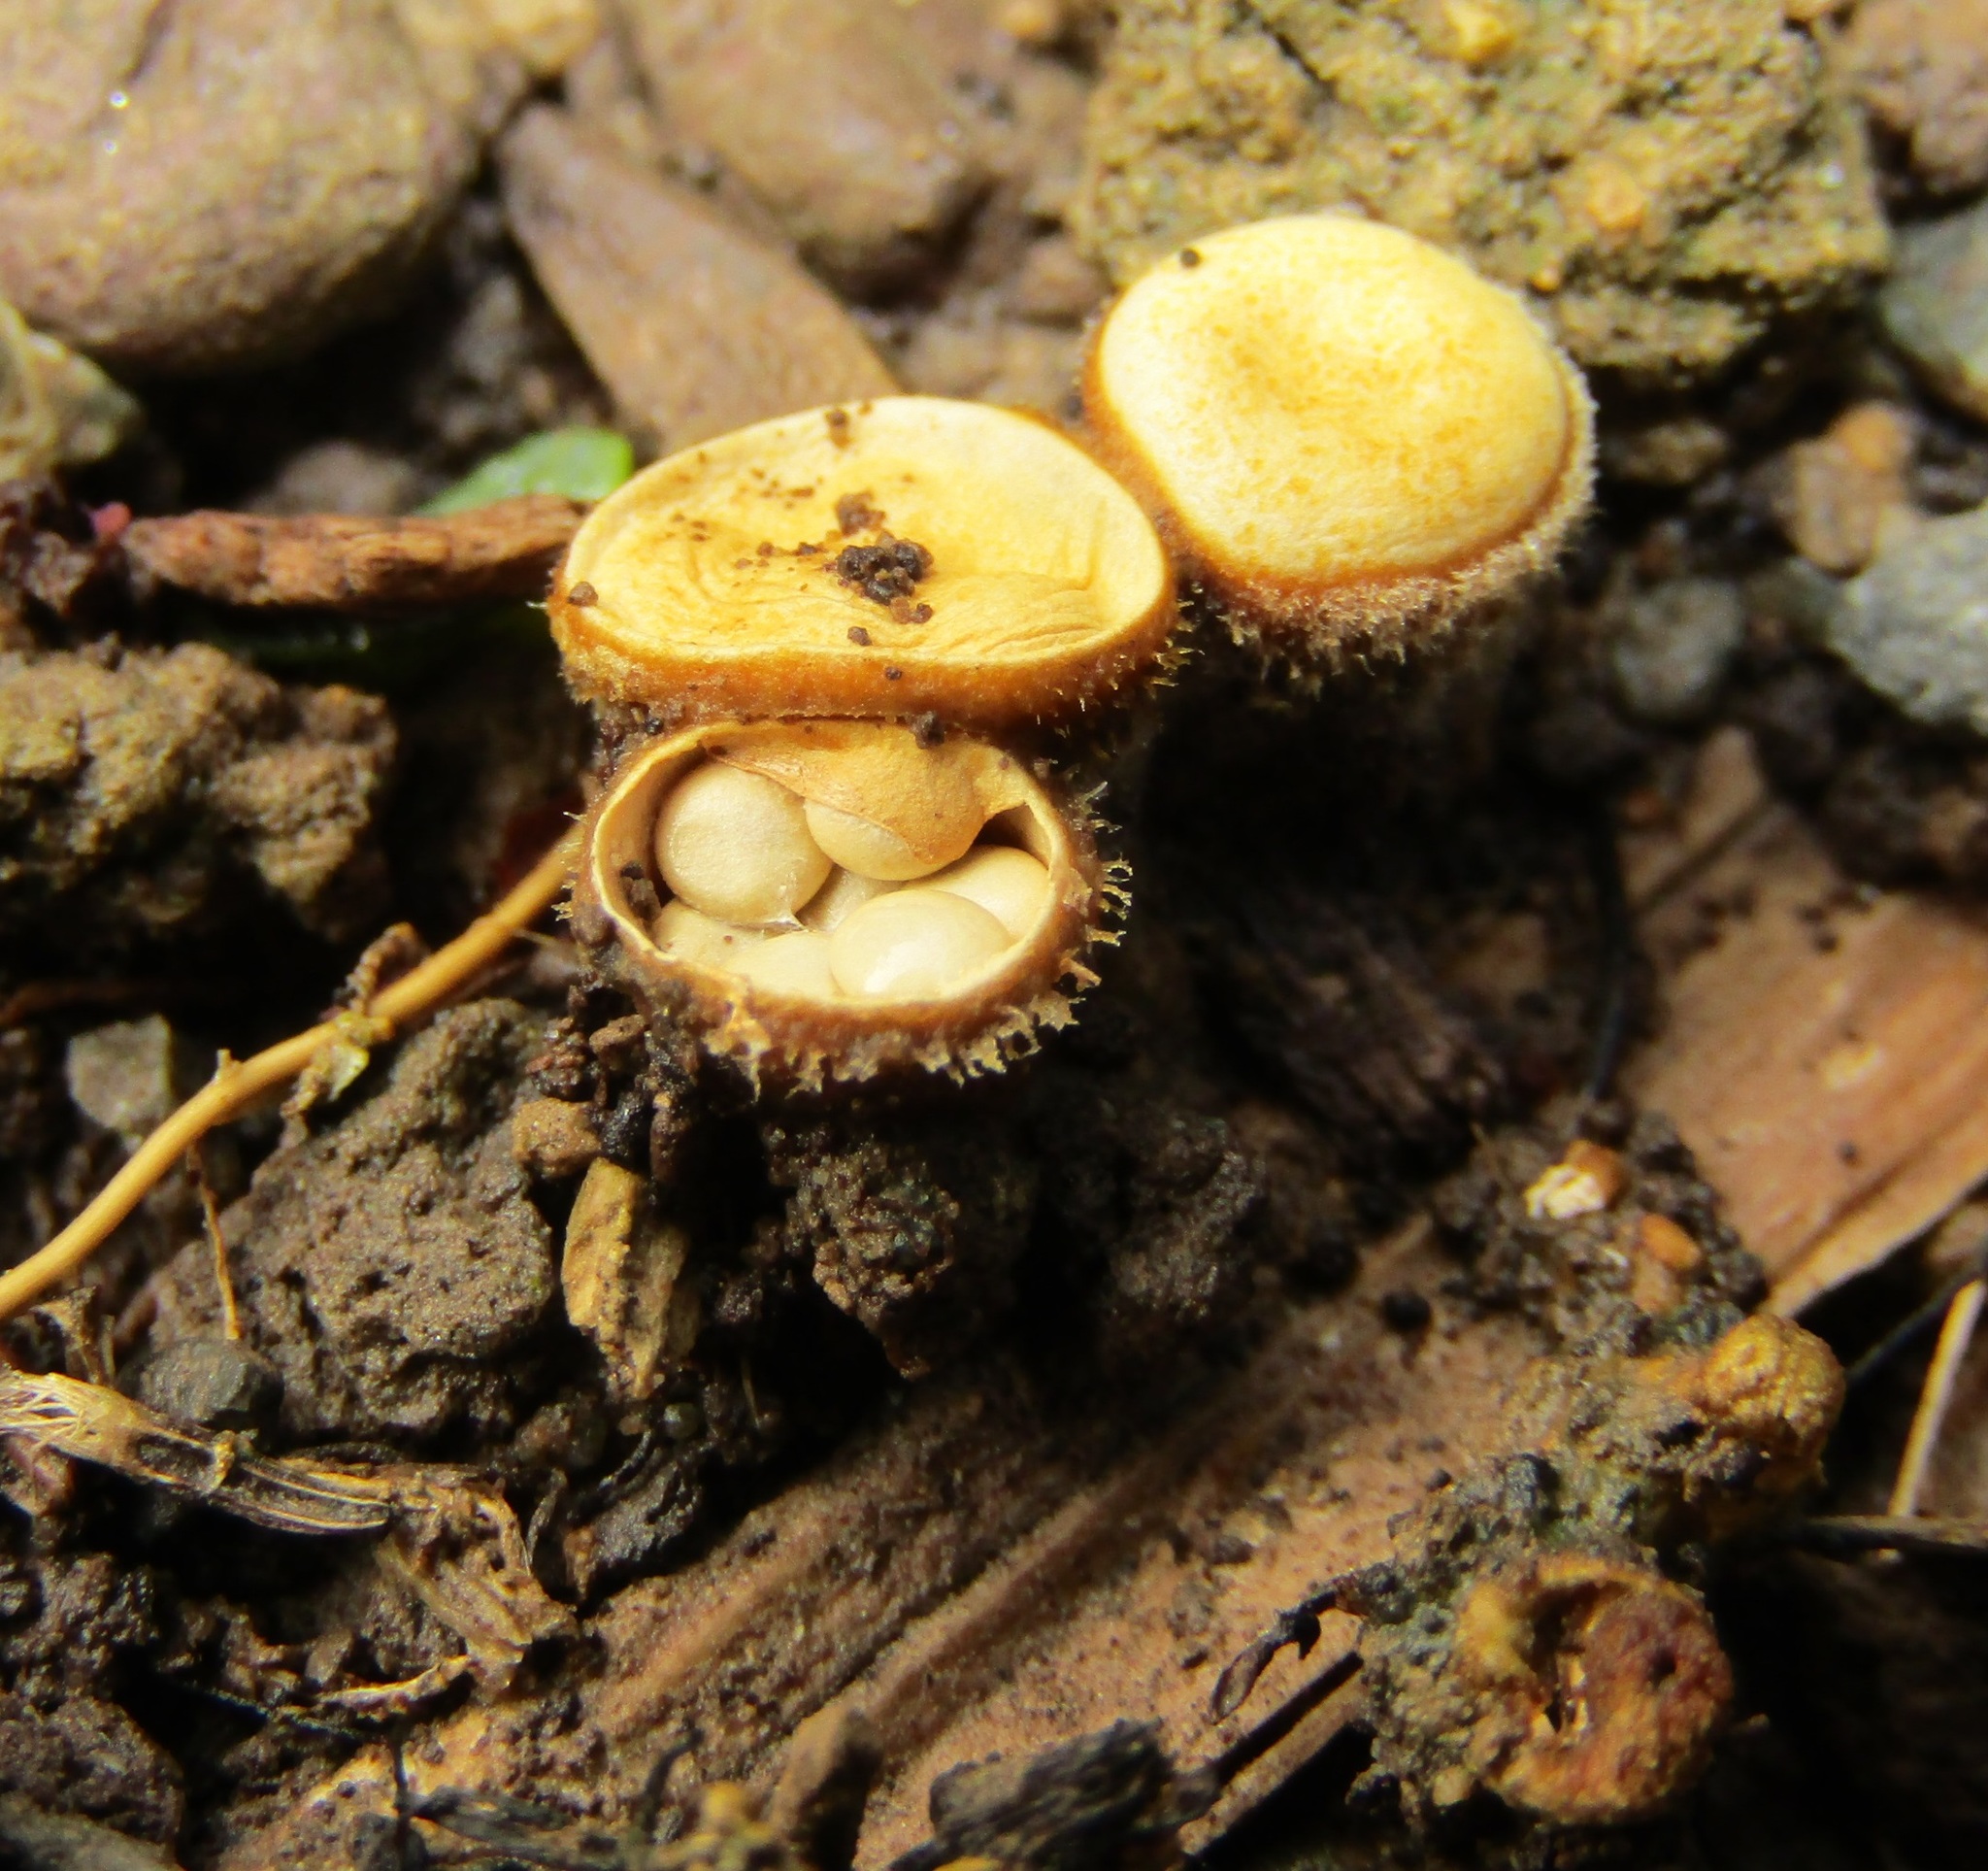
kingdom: Fungi
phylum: Basidiomycota
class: Agaricomycetes
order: Agaricales
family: Nidulariaceae
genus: Crucibulum
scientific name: Crucibulum simile
